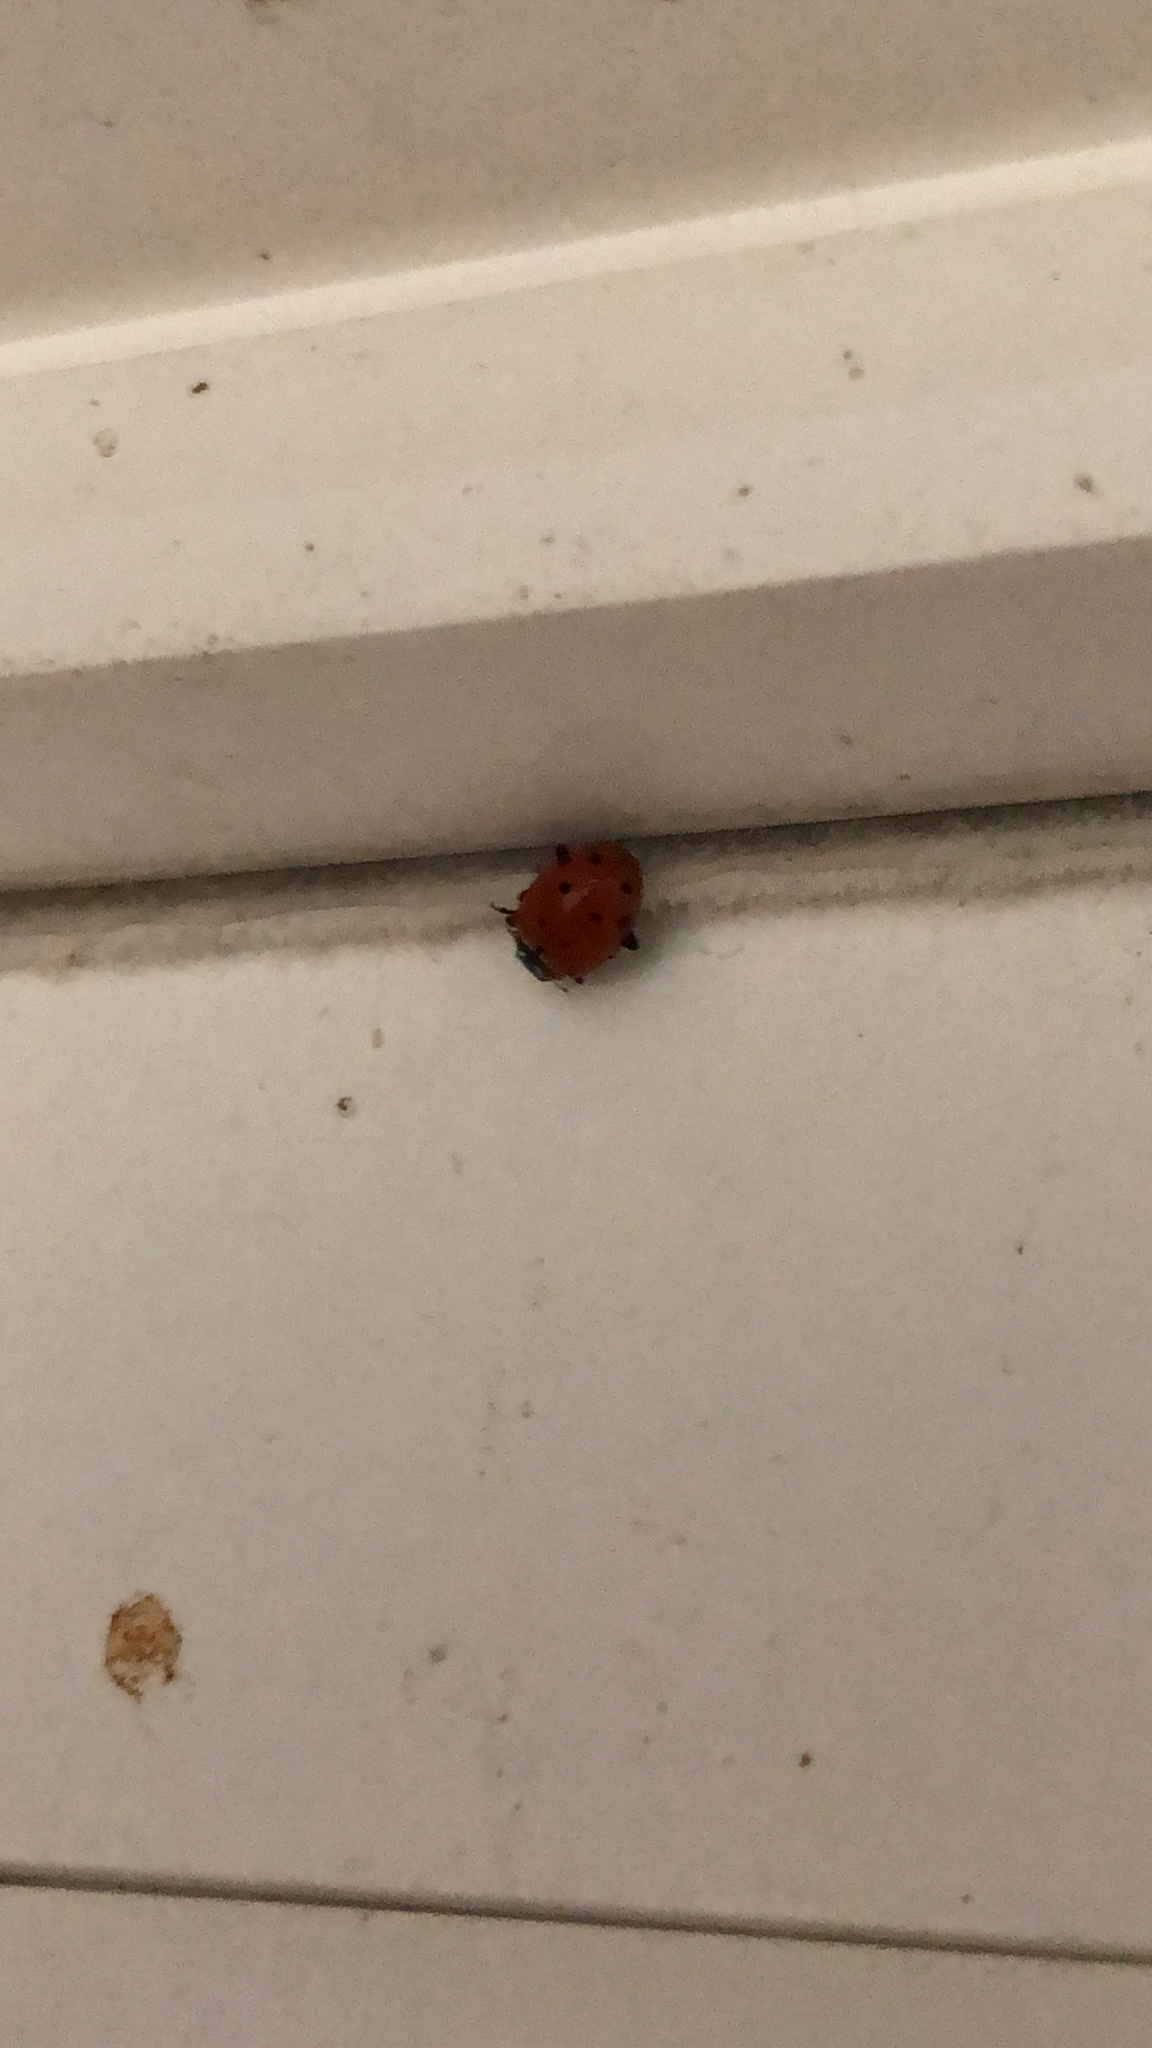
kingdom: Animalia
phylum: Arthropoda
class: Insecta
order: Coleoptera
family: Coccinellidae
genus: Hippodamia
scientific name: Hippodamia convergens
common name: Convergent lady beetle
